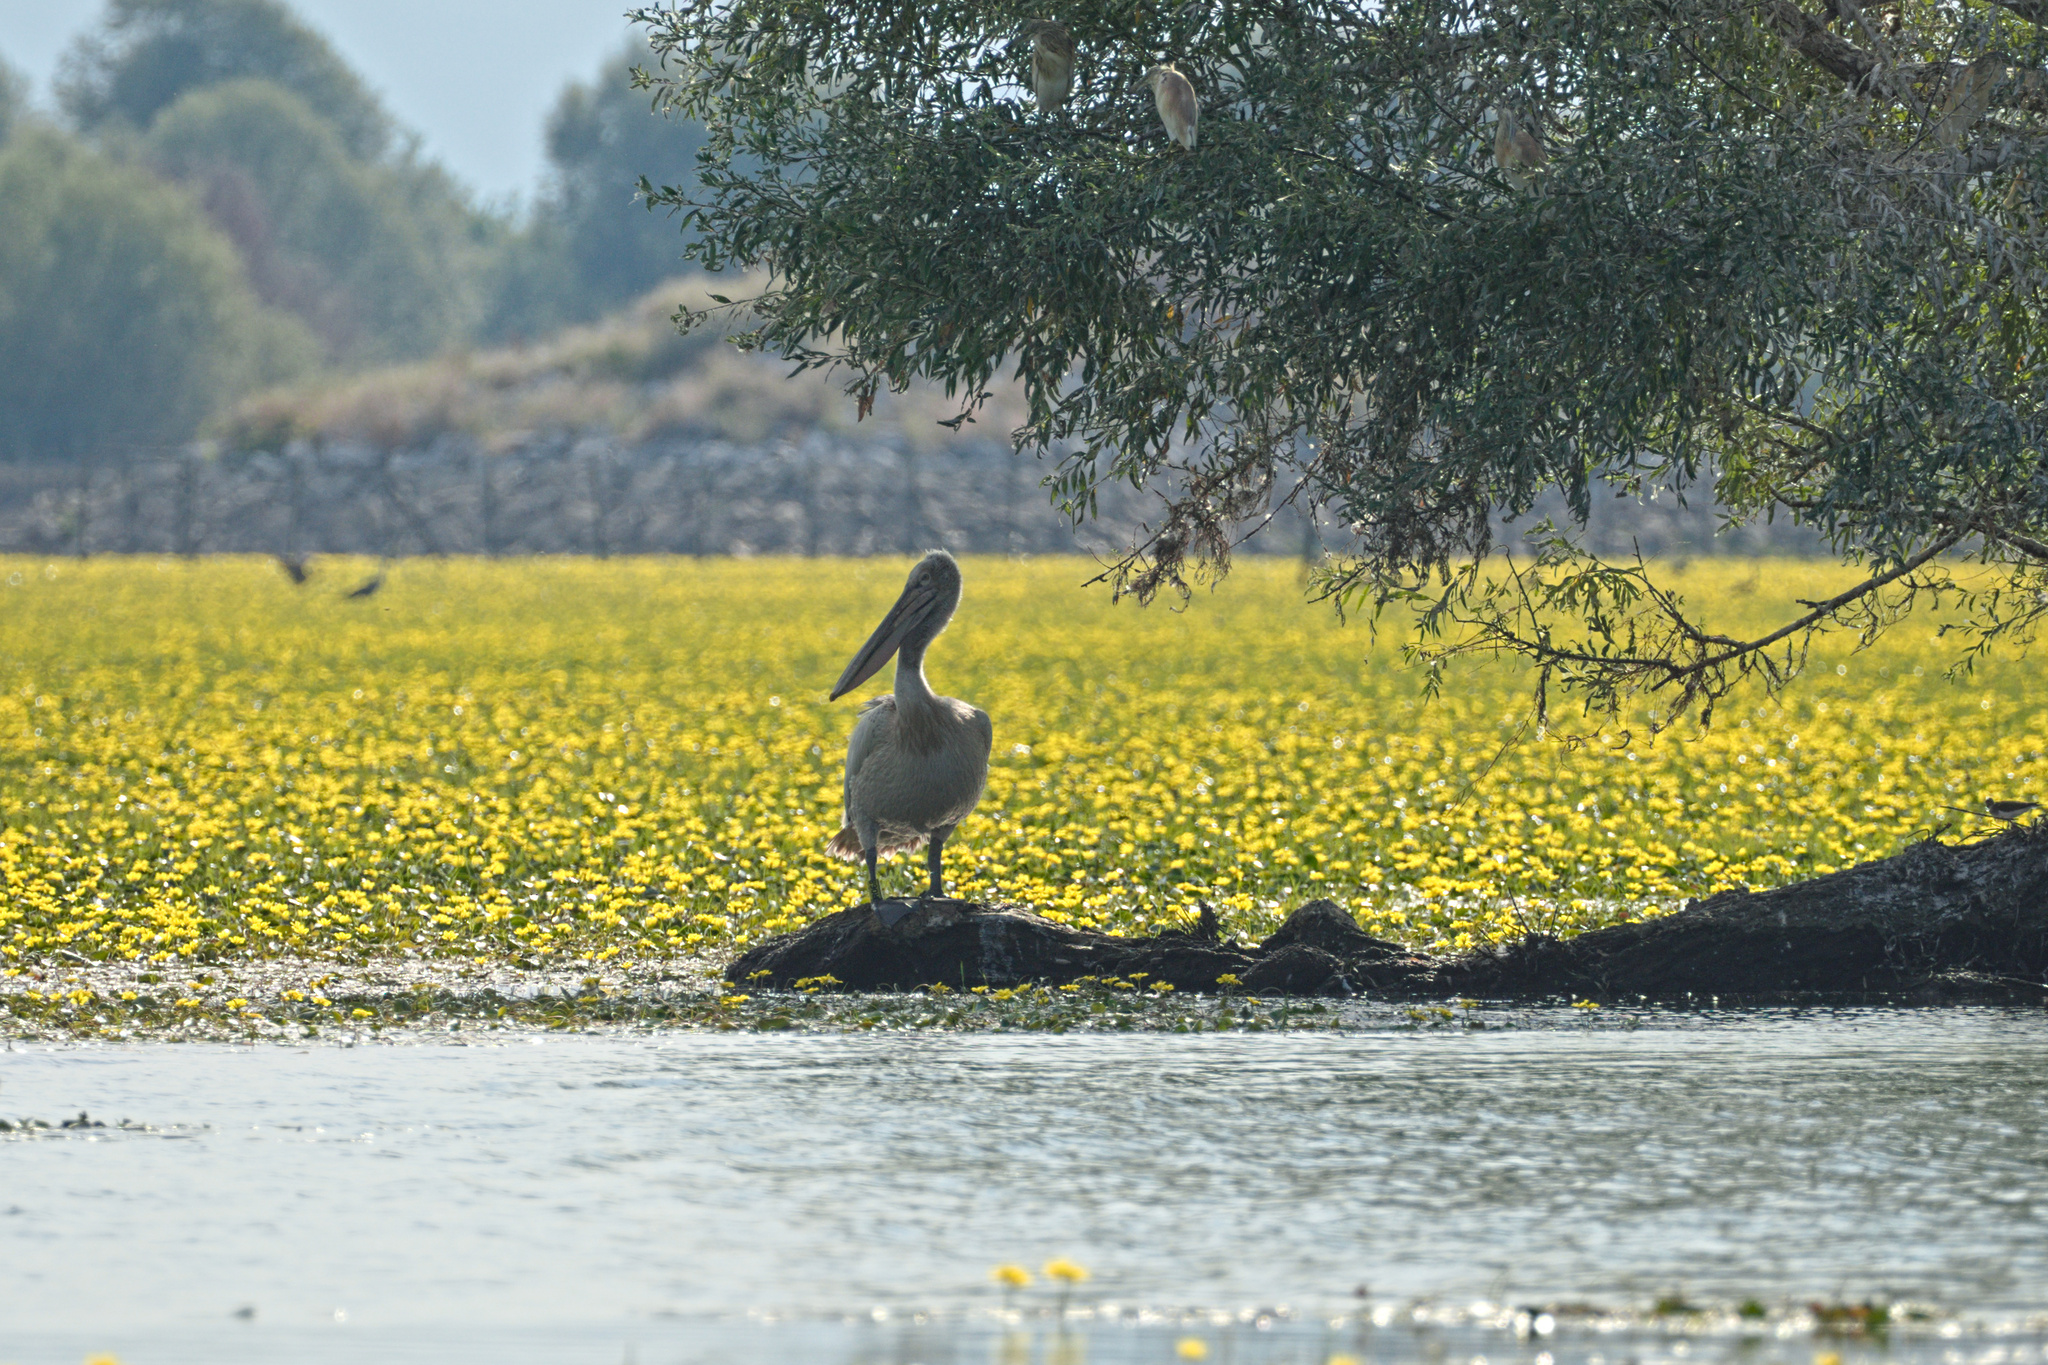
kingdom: Animalia
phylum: Chordata
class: Aves
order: Pelecaniformes
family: Pelecanidae
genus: Pelecanus
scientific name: Pelecanus crispus
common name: Dalmatian pelican
